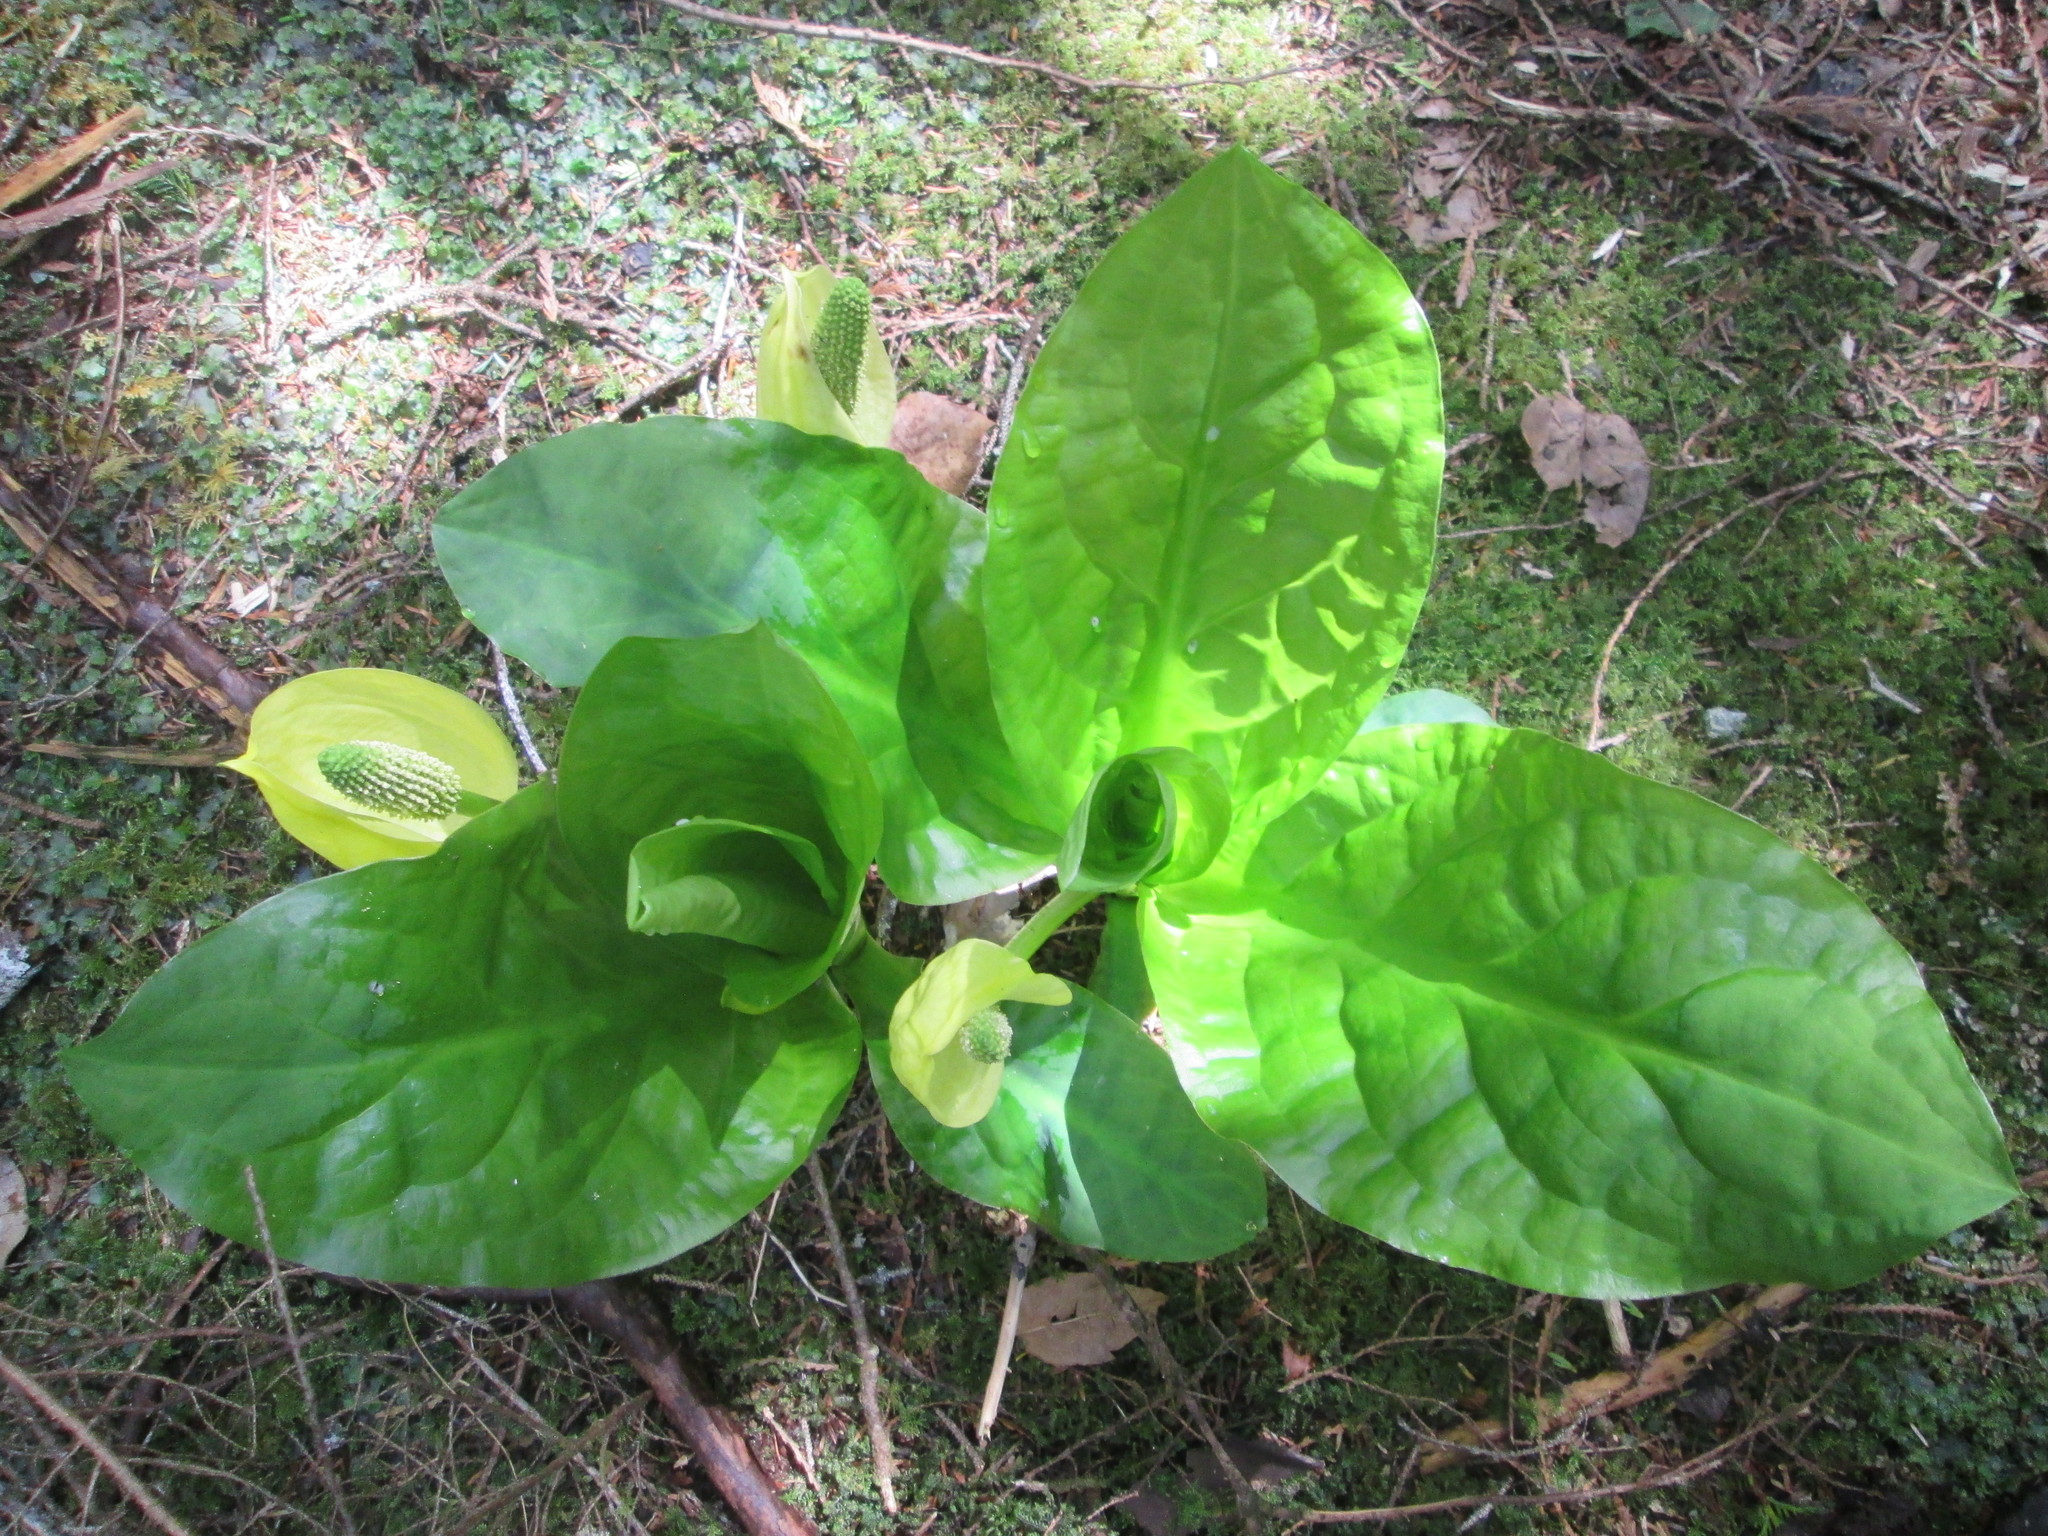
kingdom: Plantae
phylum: Tracheophyta
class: Liliopsida
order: Alismatales
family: Araceae
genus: Lysichiton
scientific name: Lysichiton americanus
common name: American skunk cabbage
